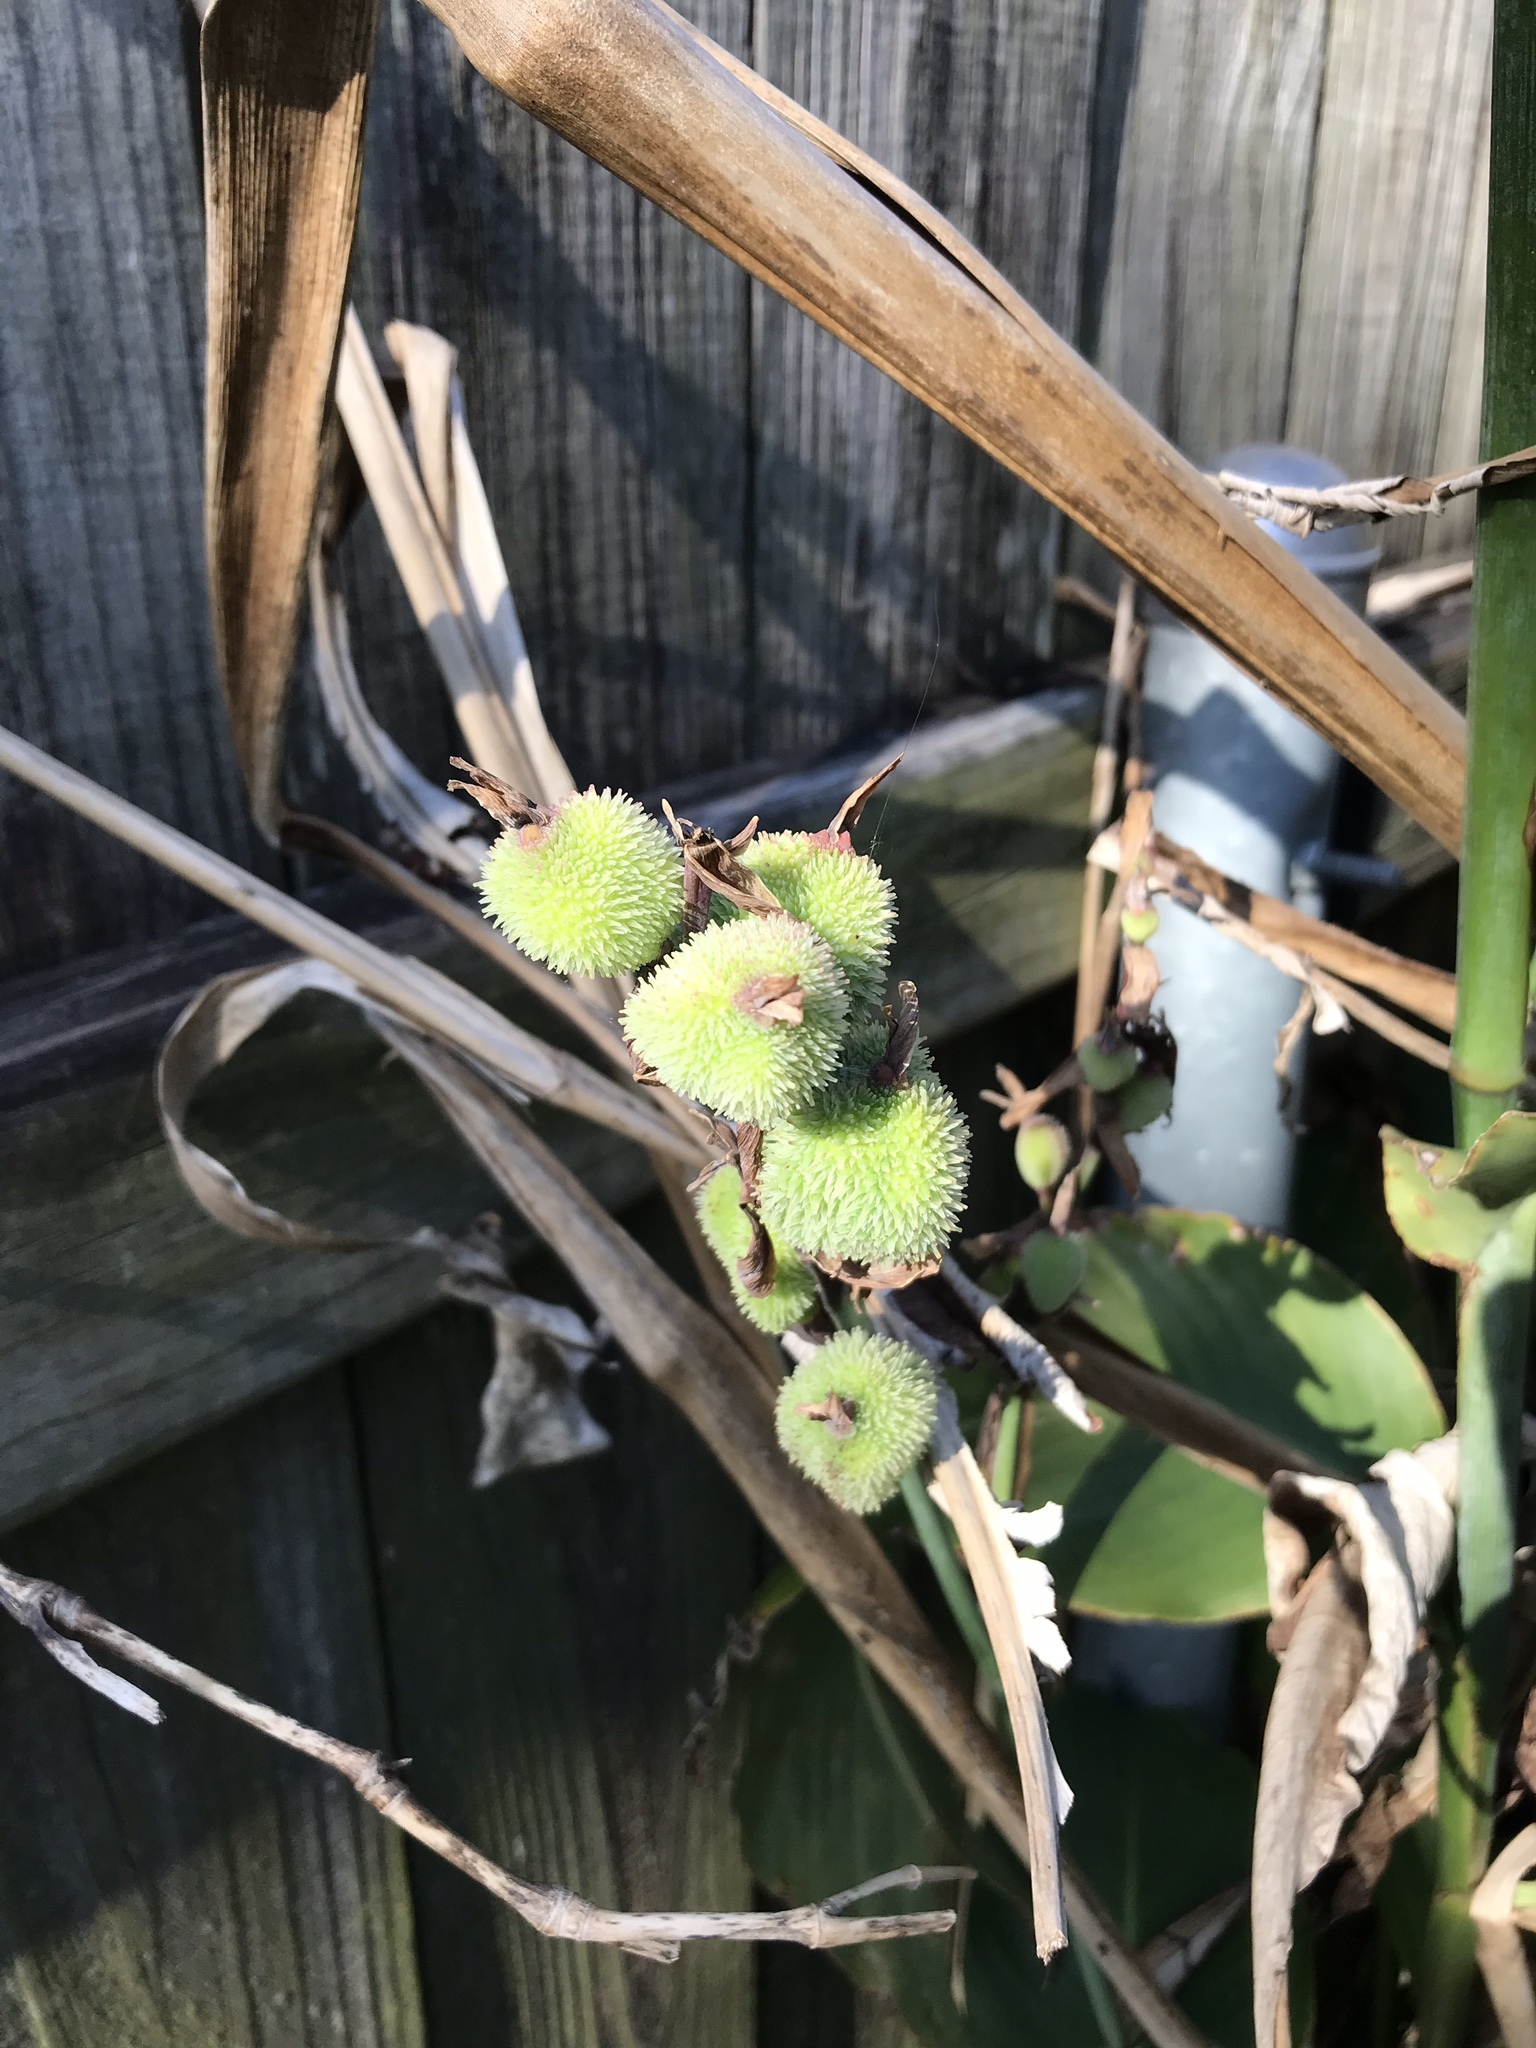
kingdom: Plantae
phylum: Tracheophyta
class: Liliopsida
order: Zingiberales
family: Cannaceae
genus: Canna
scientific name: Canna indica
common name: Indian shot
